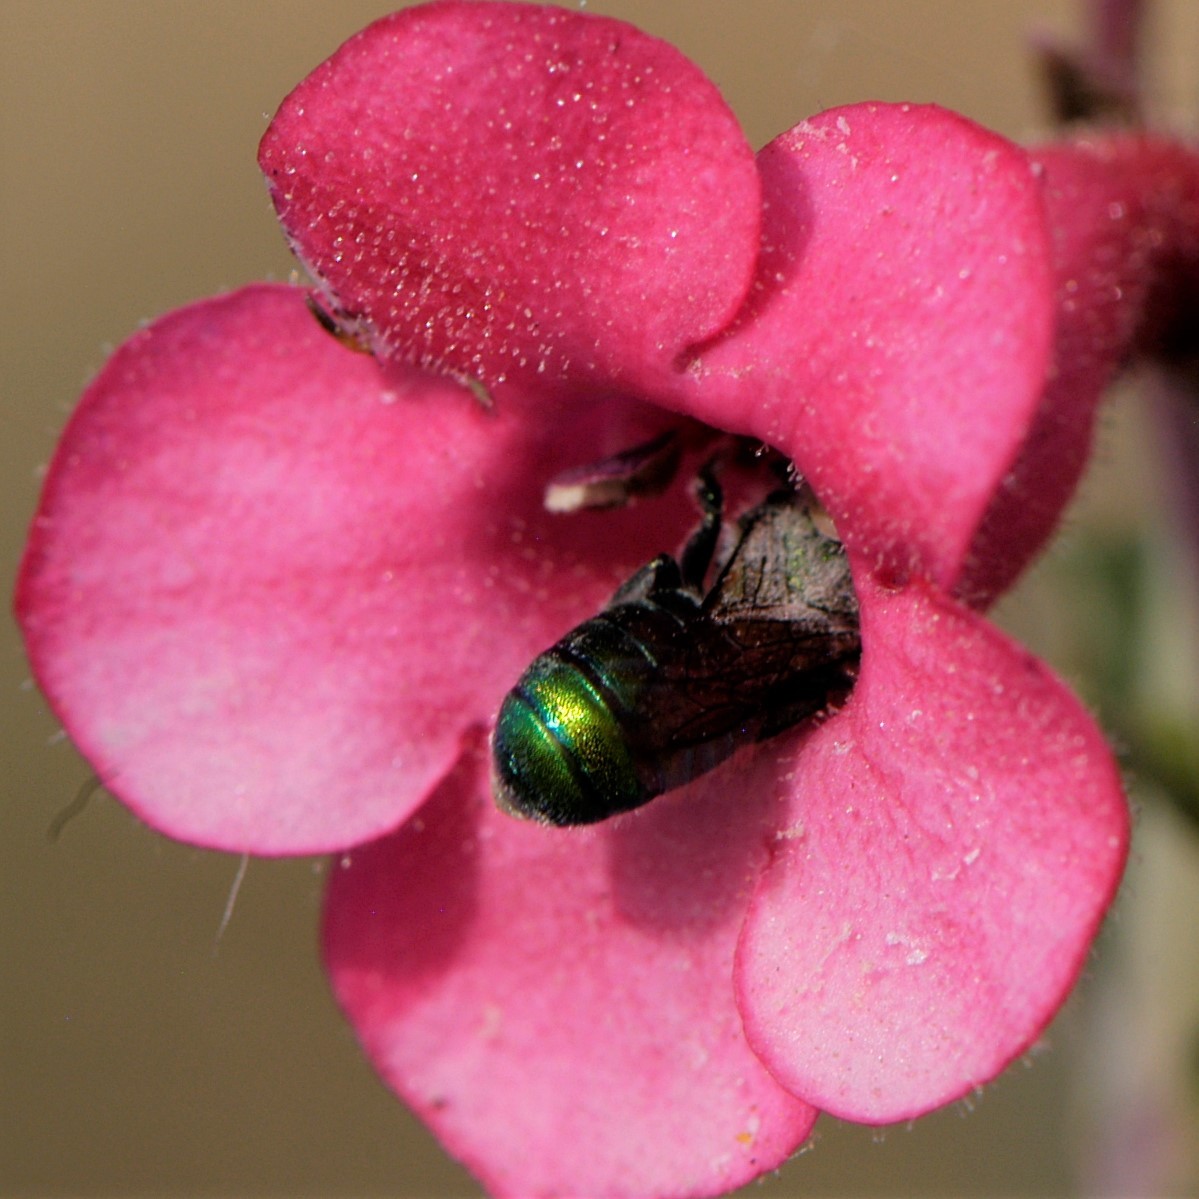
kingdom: Animalia
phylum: Arthropoda
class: Insecta
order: Hymenoptera
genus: Melanosmia
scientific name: Melanosmia
